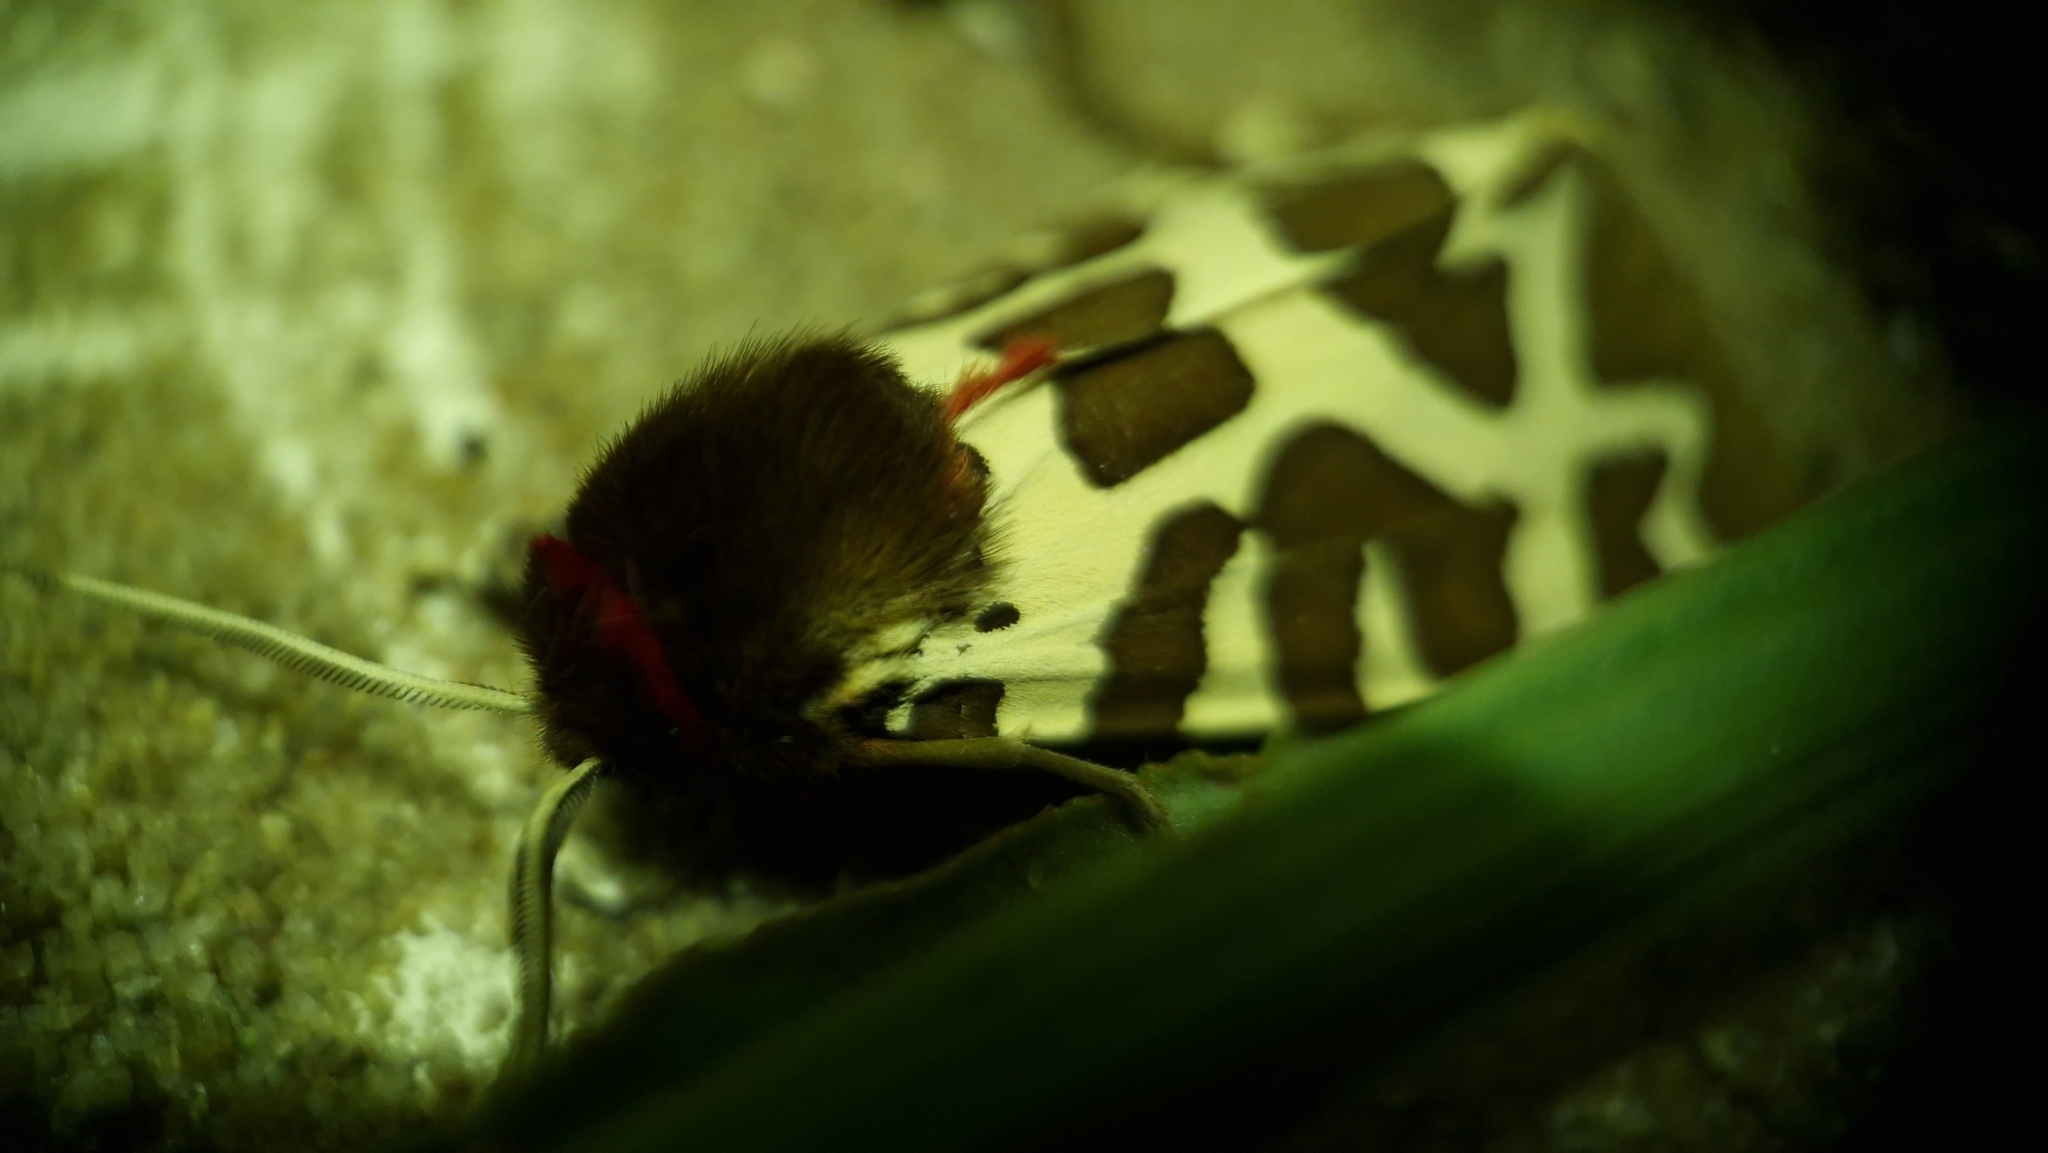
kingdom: Animalia
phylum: Arthropoda
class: Insecta
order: Lepidoptera
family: Erebidae
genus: Arctia
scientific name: Arctia caja
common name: Garden tiger
